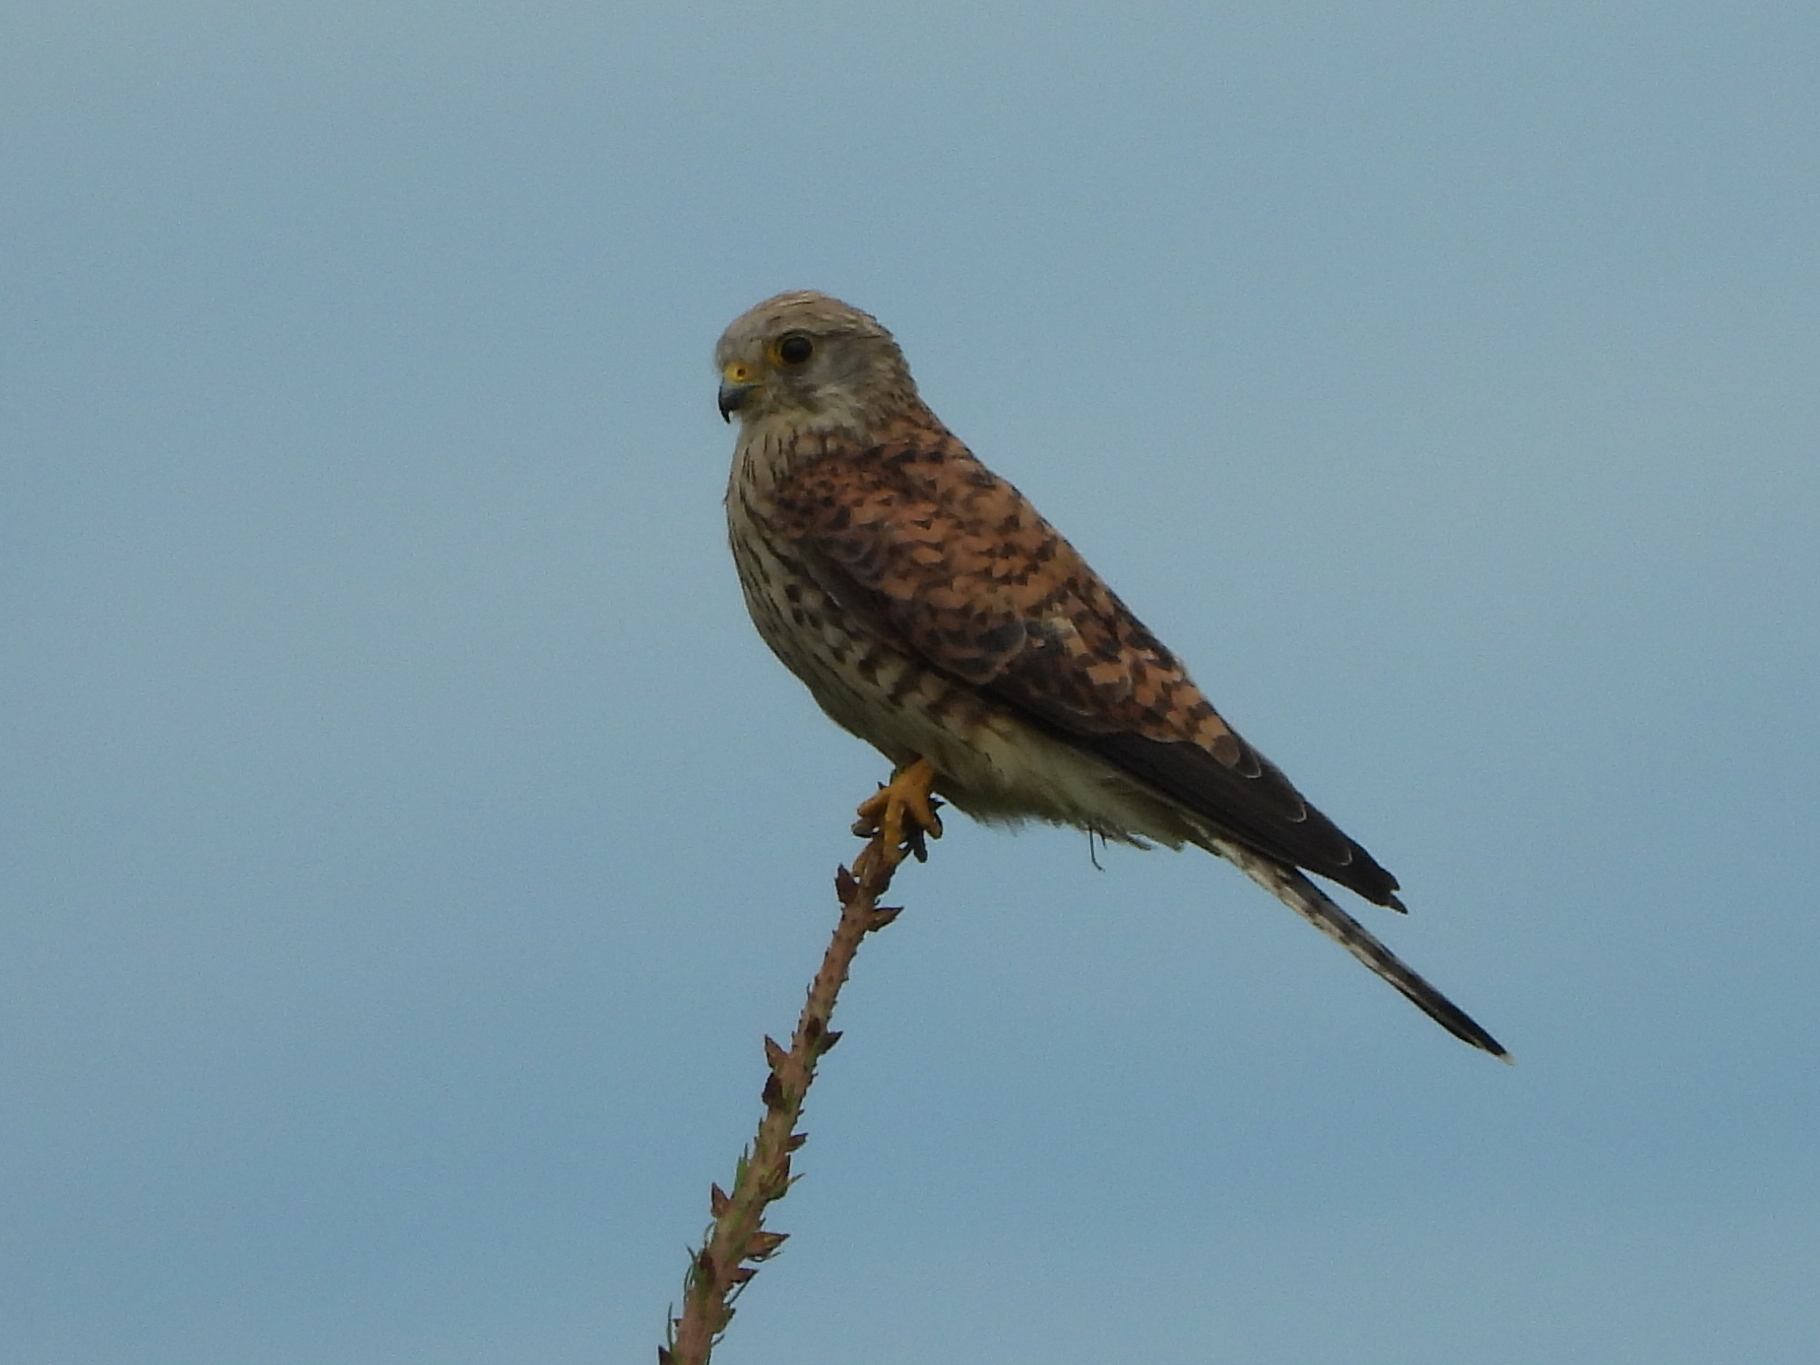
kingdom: Animalia
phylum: Chordata
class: Aves
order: Falconiformes
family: Falconidae
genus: Falco
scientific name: Falco tinnunculus
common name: Common kestrel
